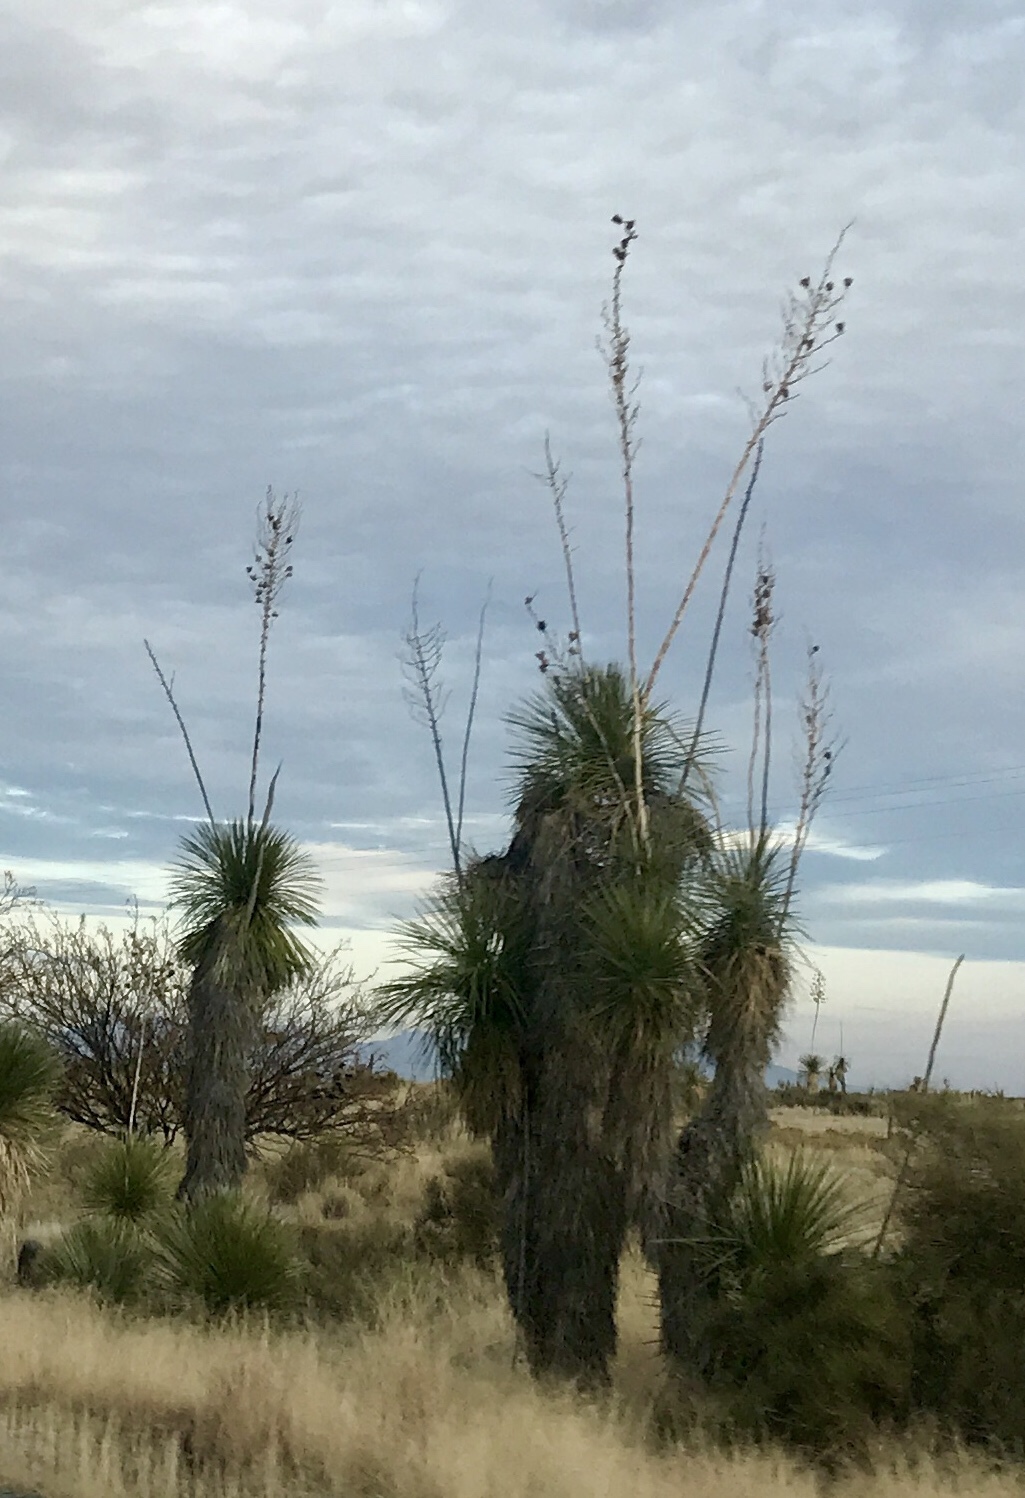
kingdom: Plantae
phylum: Tracheophyta
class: Liliopsida
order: Asparagales
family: Asparagaceae
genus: Yucca
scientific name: Yucca elata
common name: Palmella
